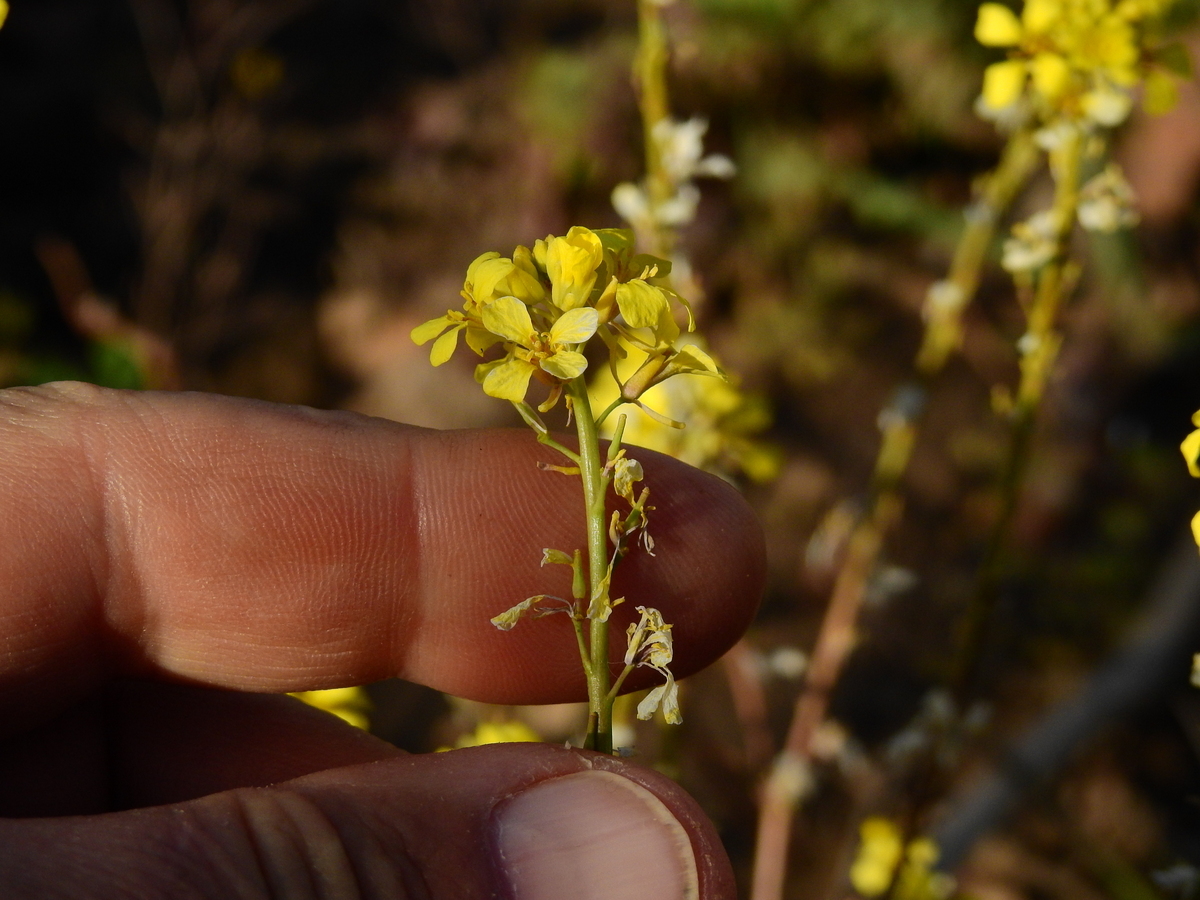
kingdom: Plantae
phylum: Tracheophyta
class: Magnoliopsida
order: Brassicales
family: Brassicaceae
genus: Rapistrum
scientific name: Rapistrum rugosum
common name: Annual bastardcabbage
